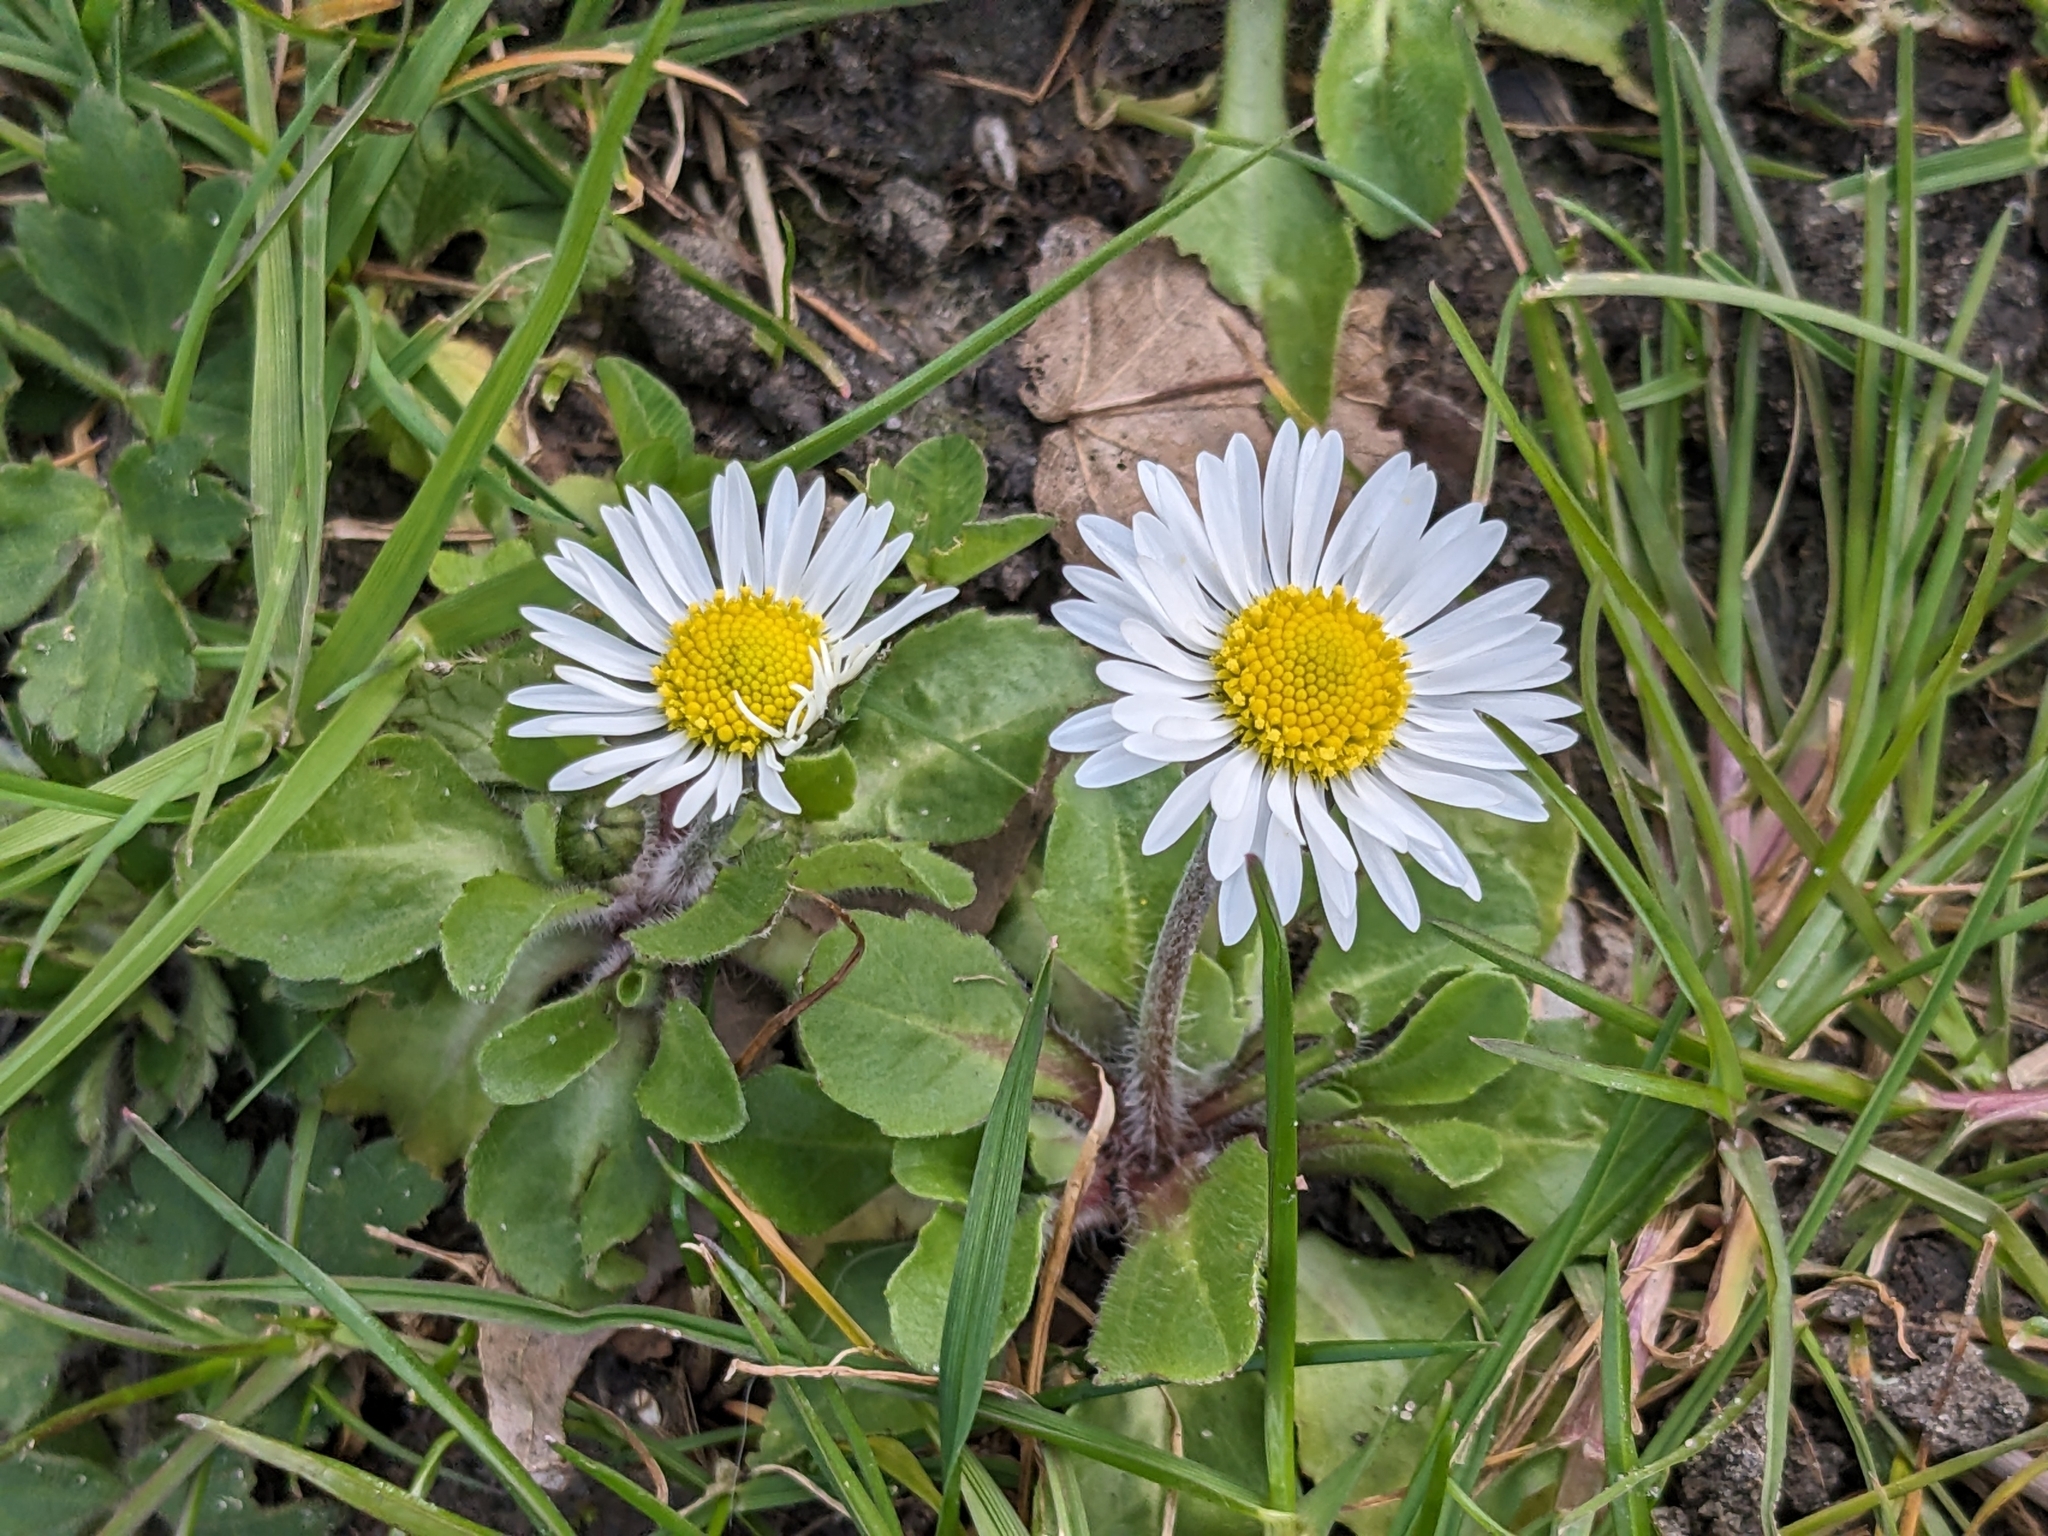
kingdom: Plantae
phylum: Tracheophyta
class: Magnoliopsida
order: Asterales
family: Asteraceae
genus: Bellis
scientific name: Bellis perennis
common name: Lawndaisy
